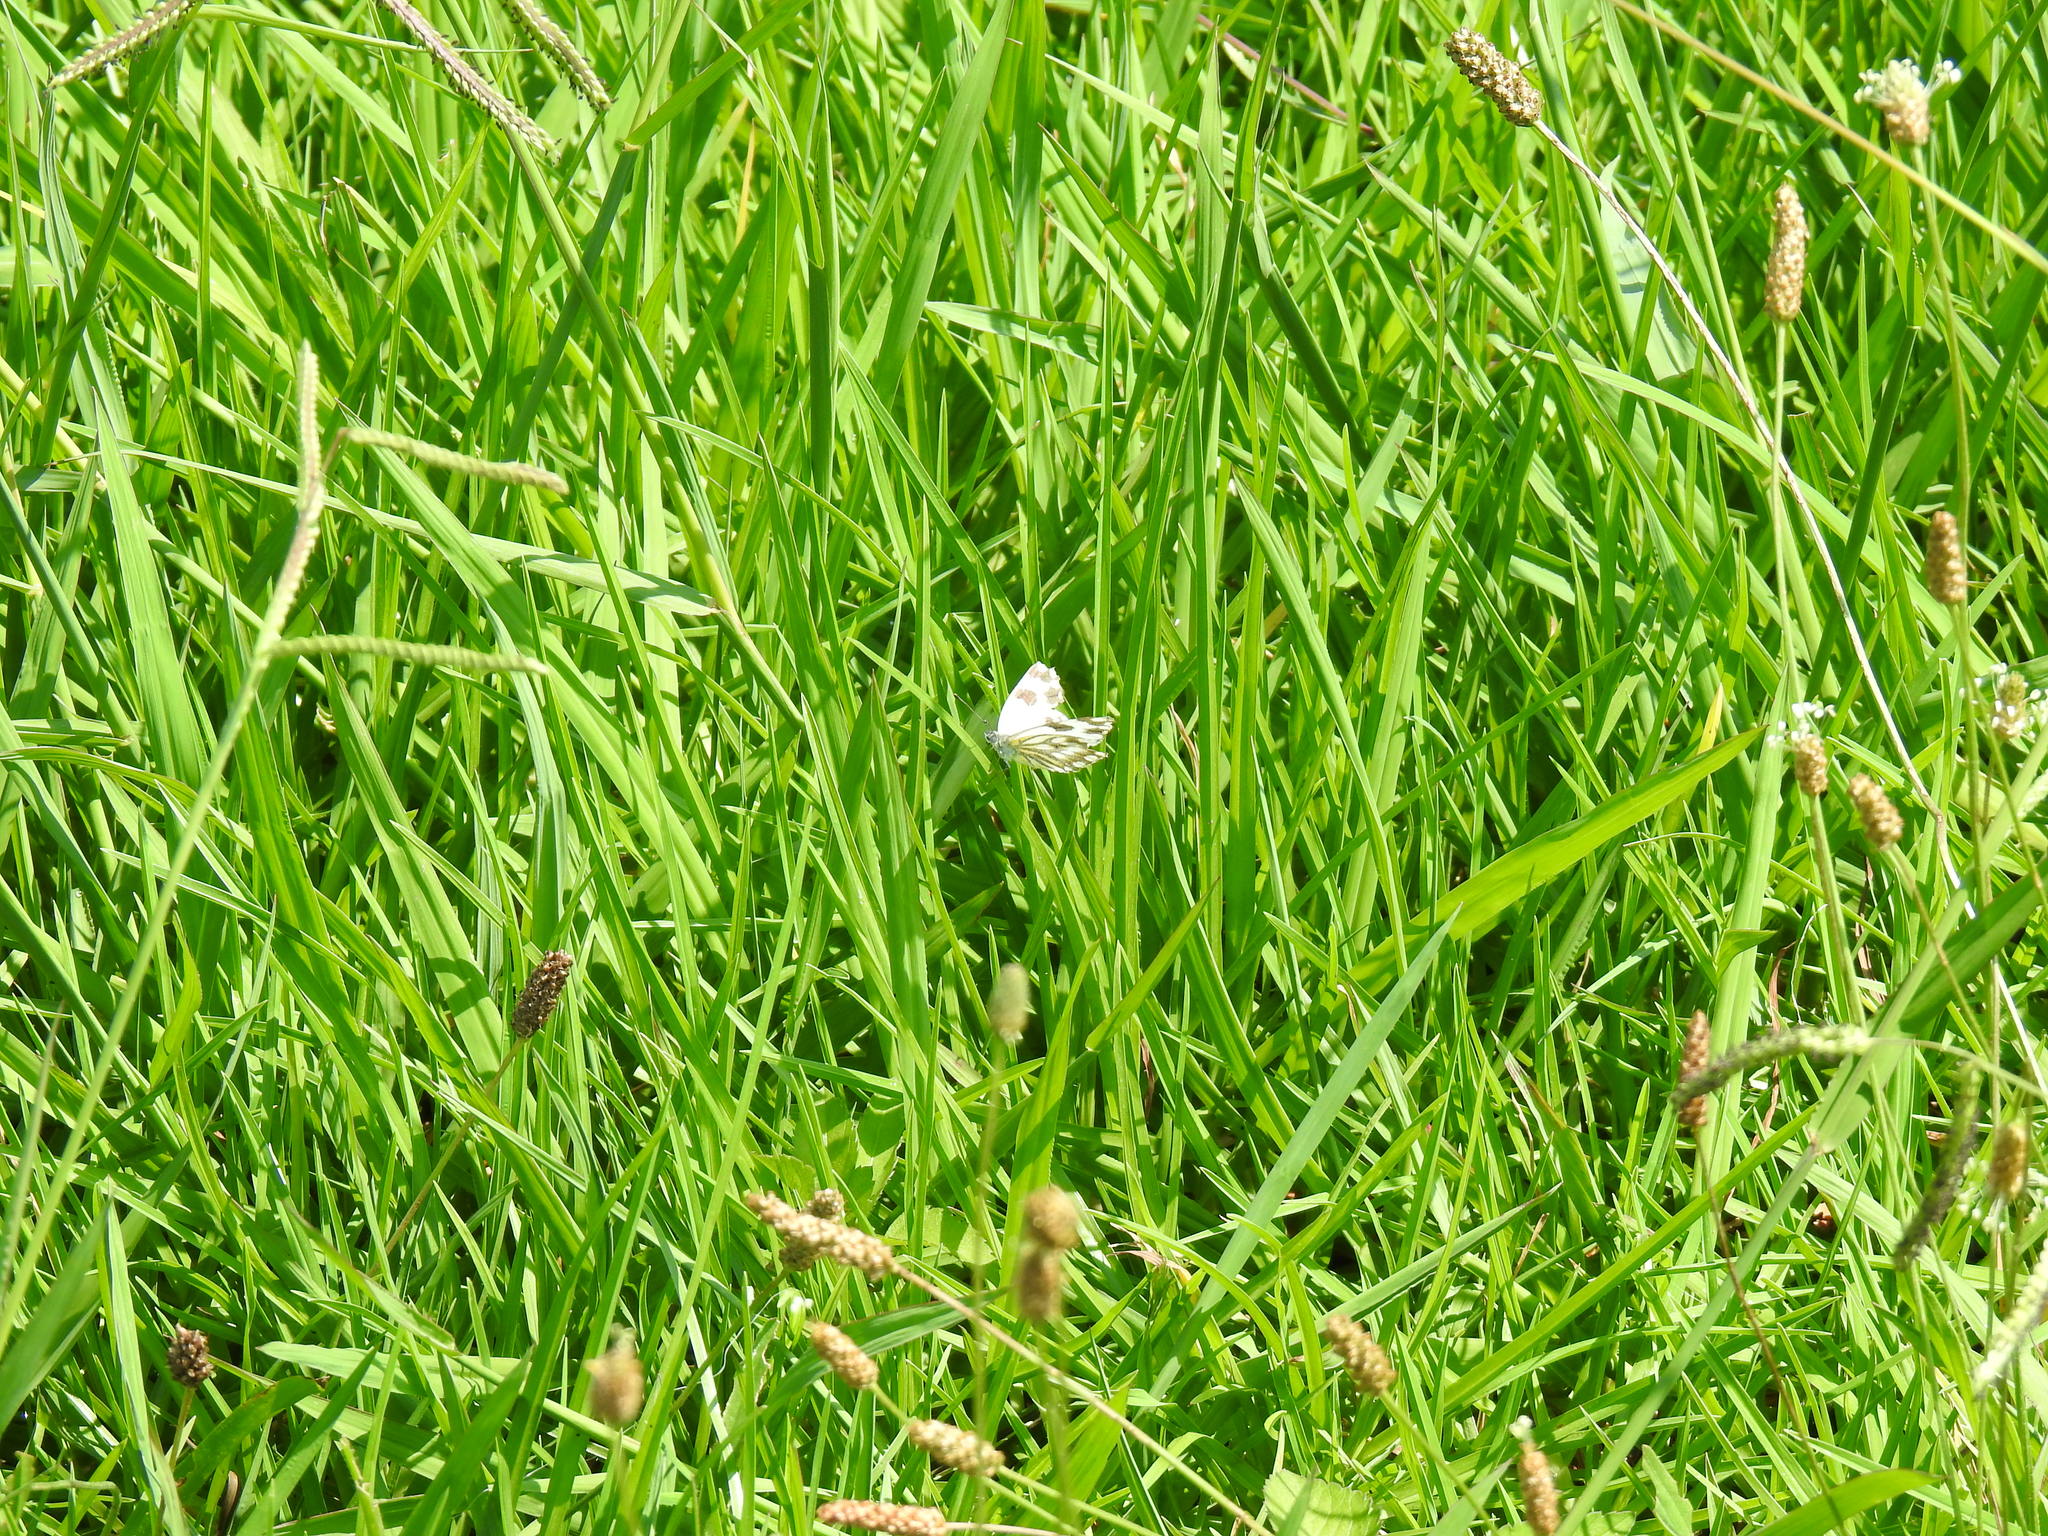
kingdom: Animalia
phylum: Arthropoda
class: Insecta
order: Lepidoptera
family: Pieridae
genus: Pontia
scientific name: Pontia helice
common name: Meadow white
